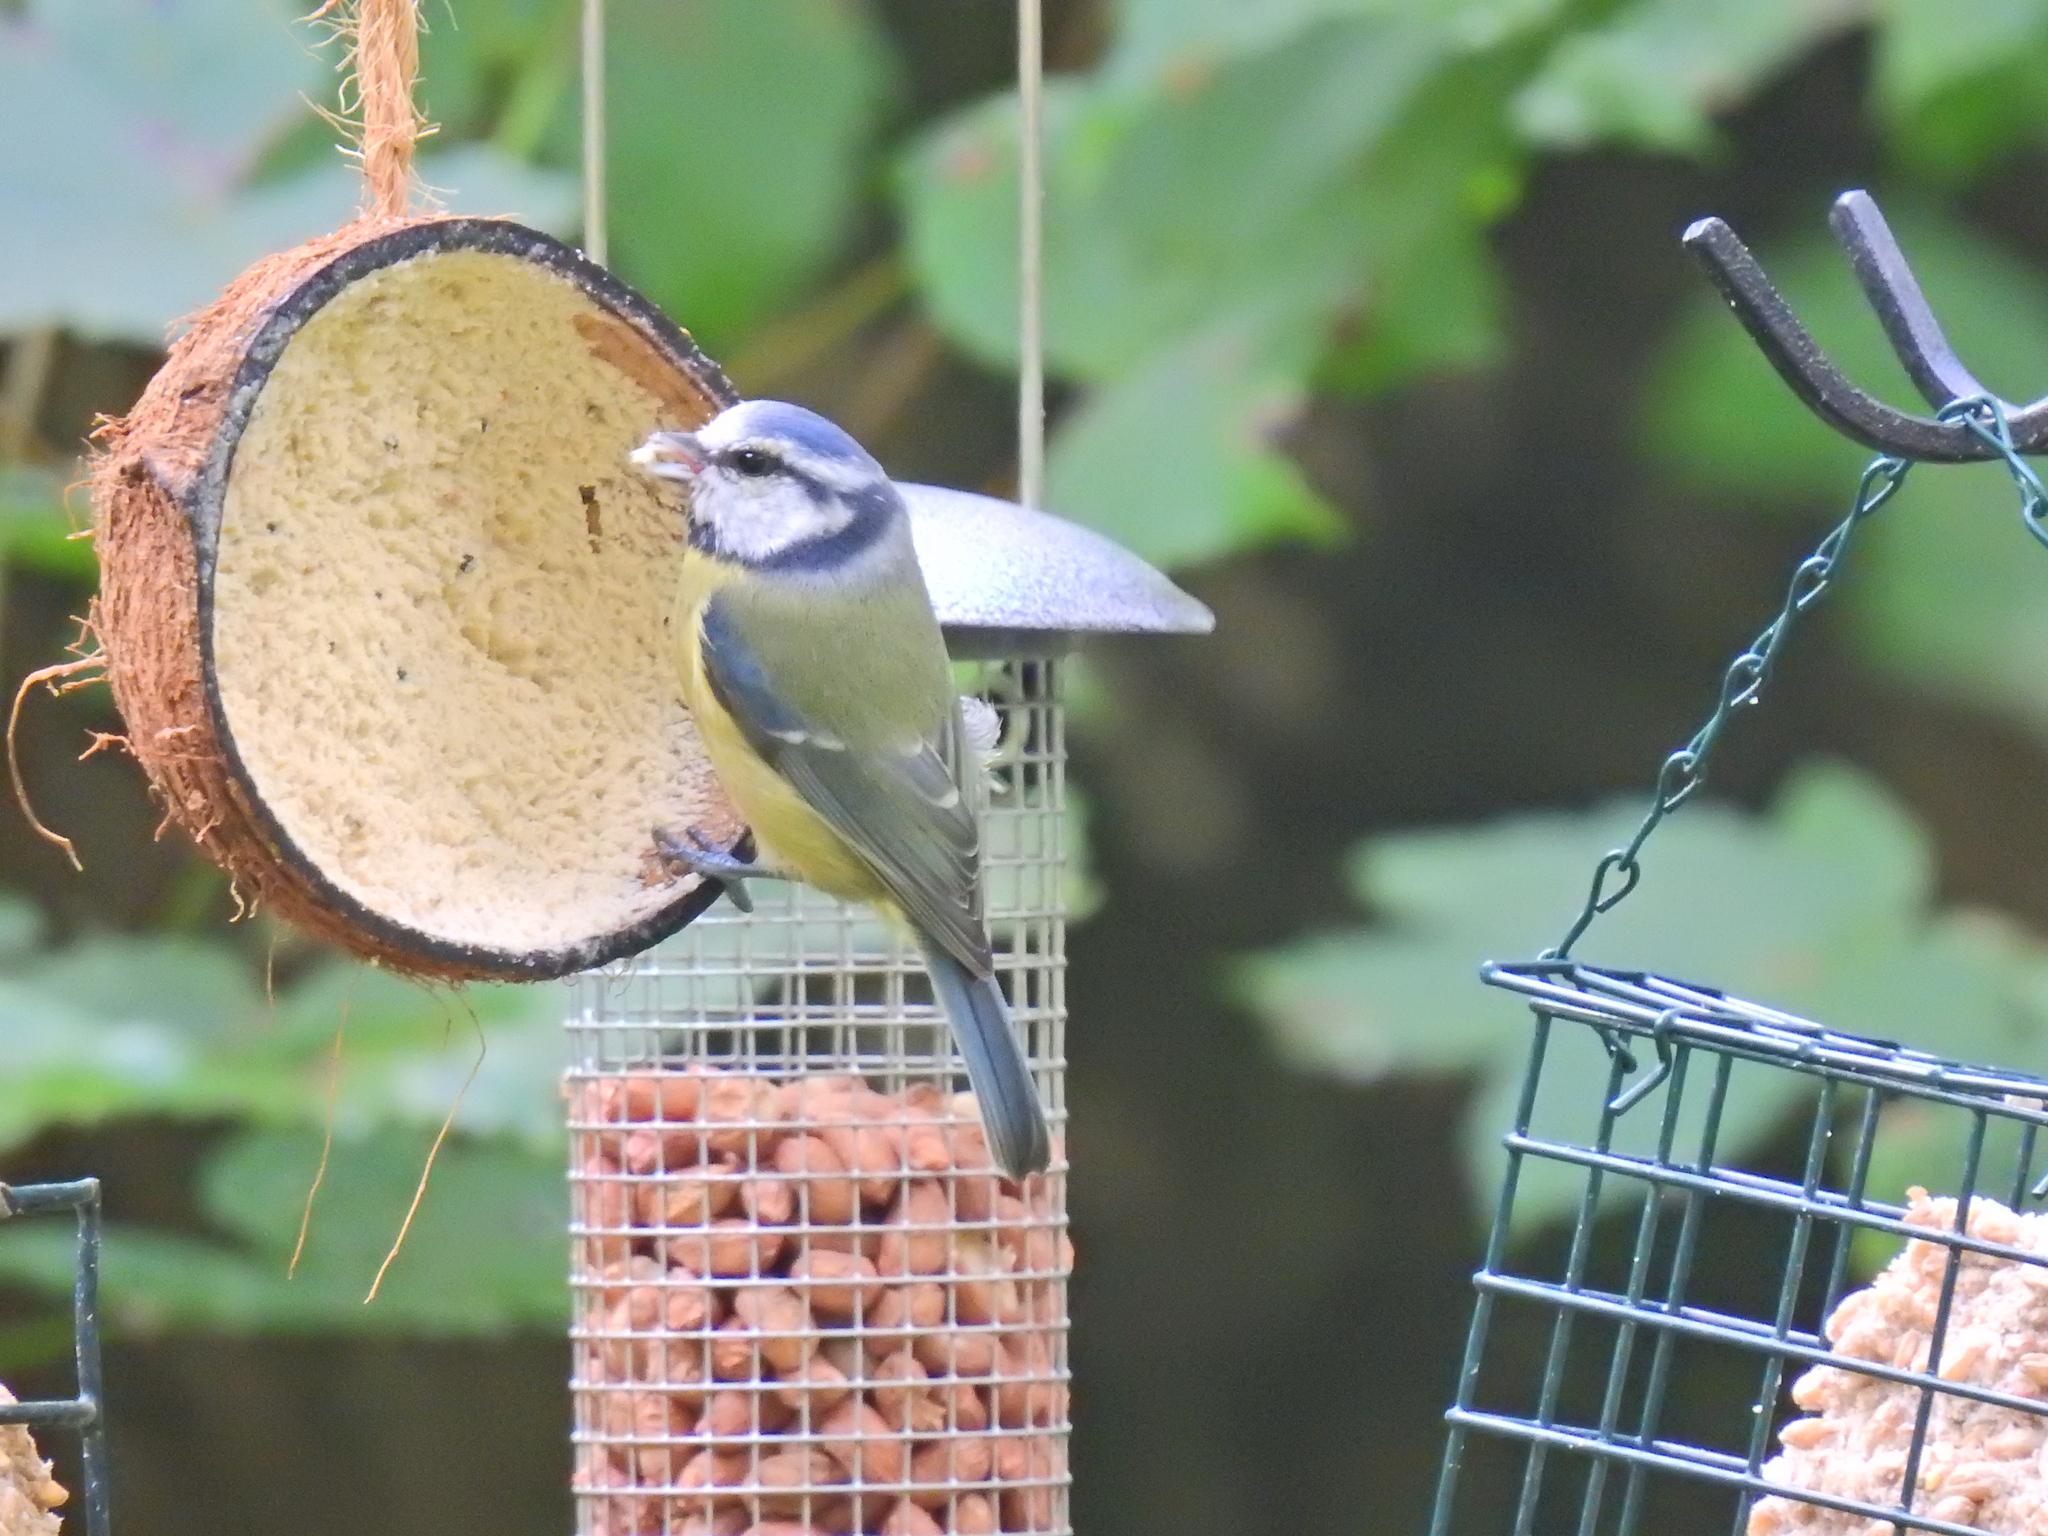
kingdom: Animalia
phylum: Chordata
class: Aves
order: Passeriformes
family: Paridae
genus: Cyanistes
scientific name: Cyanistes caeruleus
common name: Eurasian blue tit
